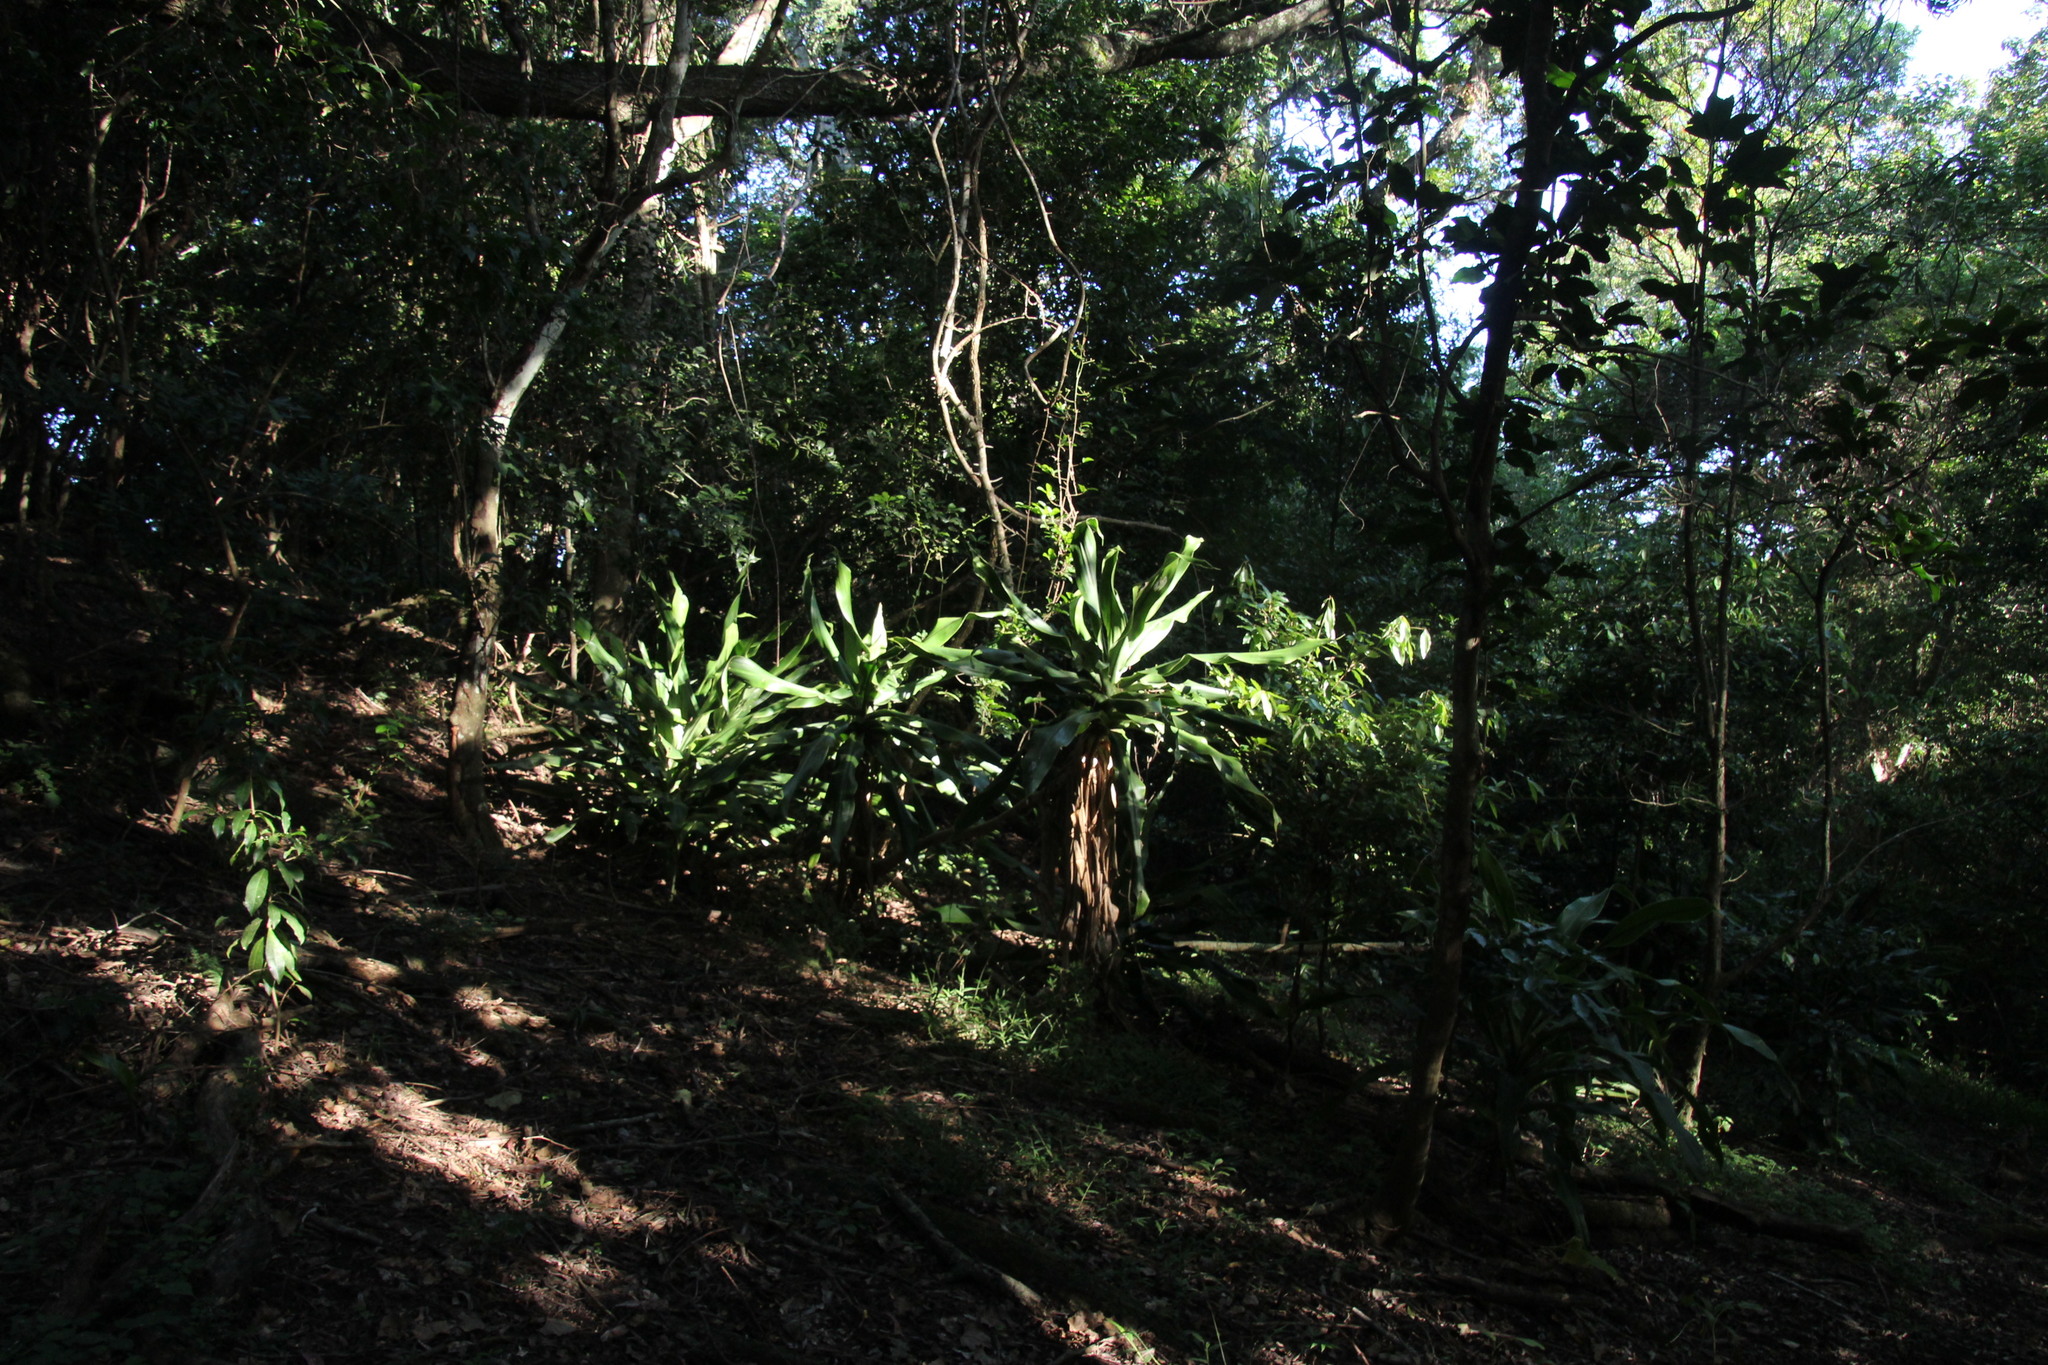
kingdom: Plantae
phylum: Tracheophyta
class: Liliopsida
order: Asparagales
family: Asparagaceae
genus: Dracaena
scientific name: Dracaena aletriformis
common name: Large-leaved dragon tree
